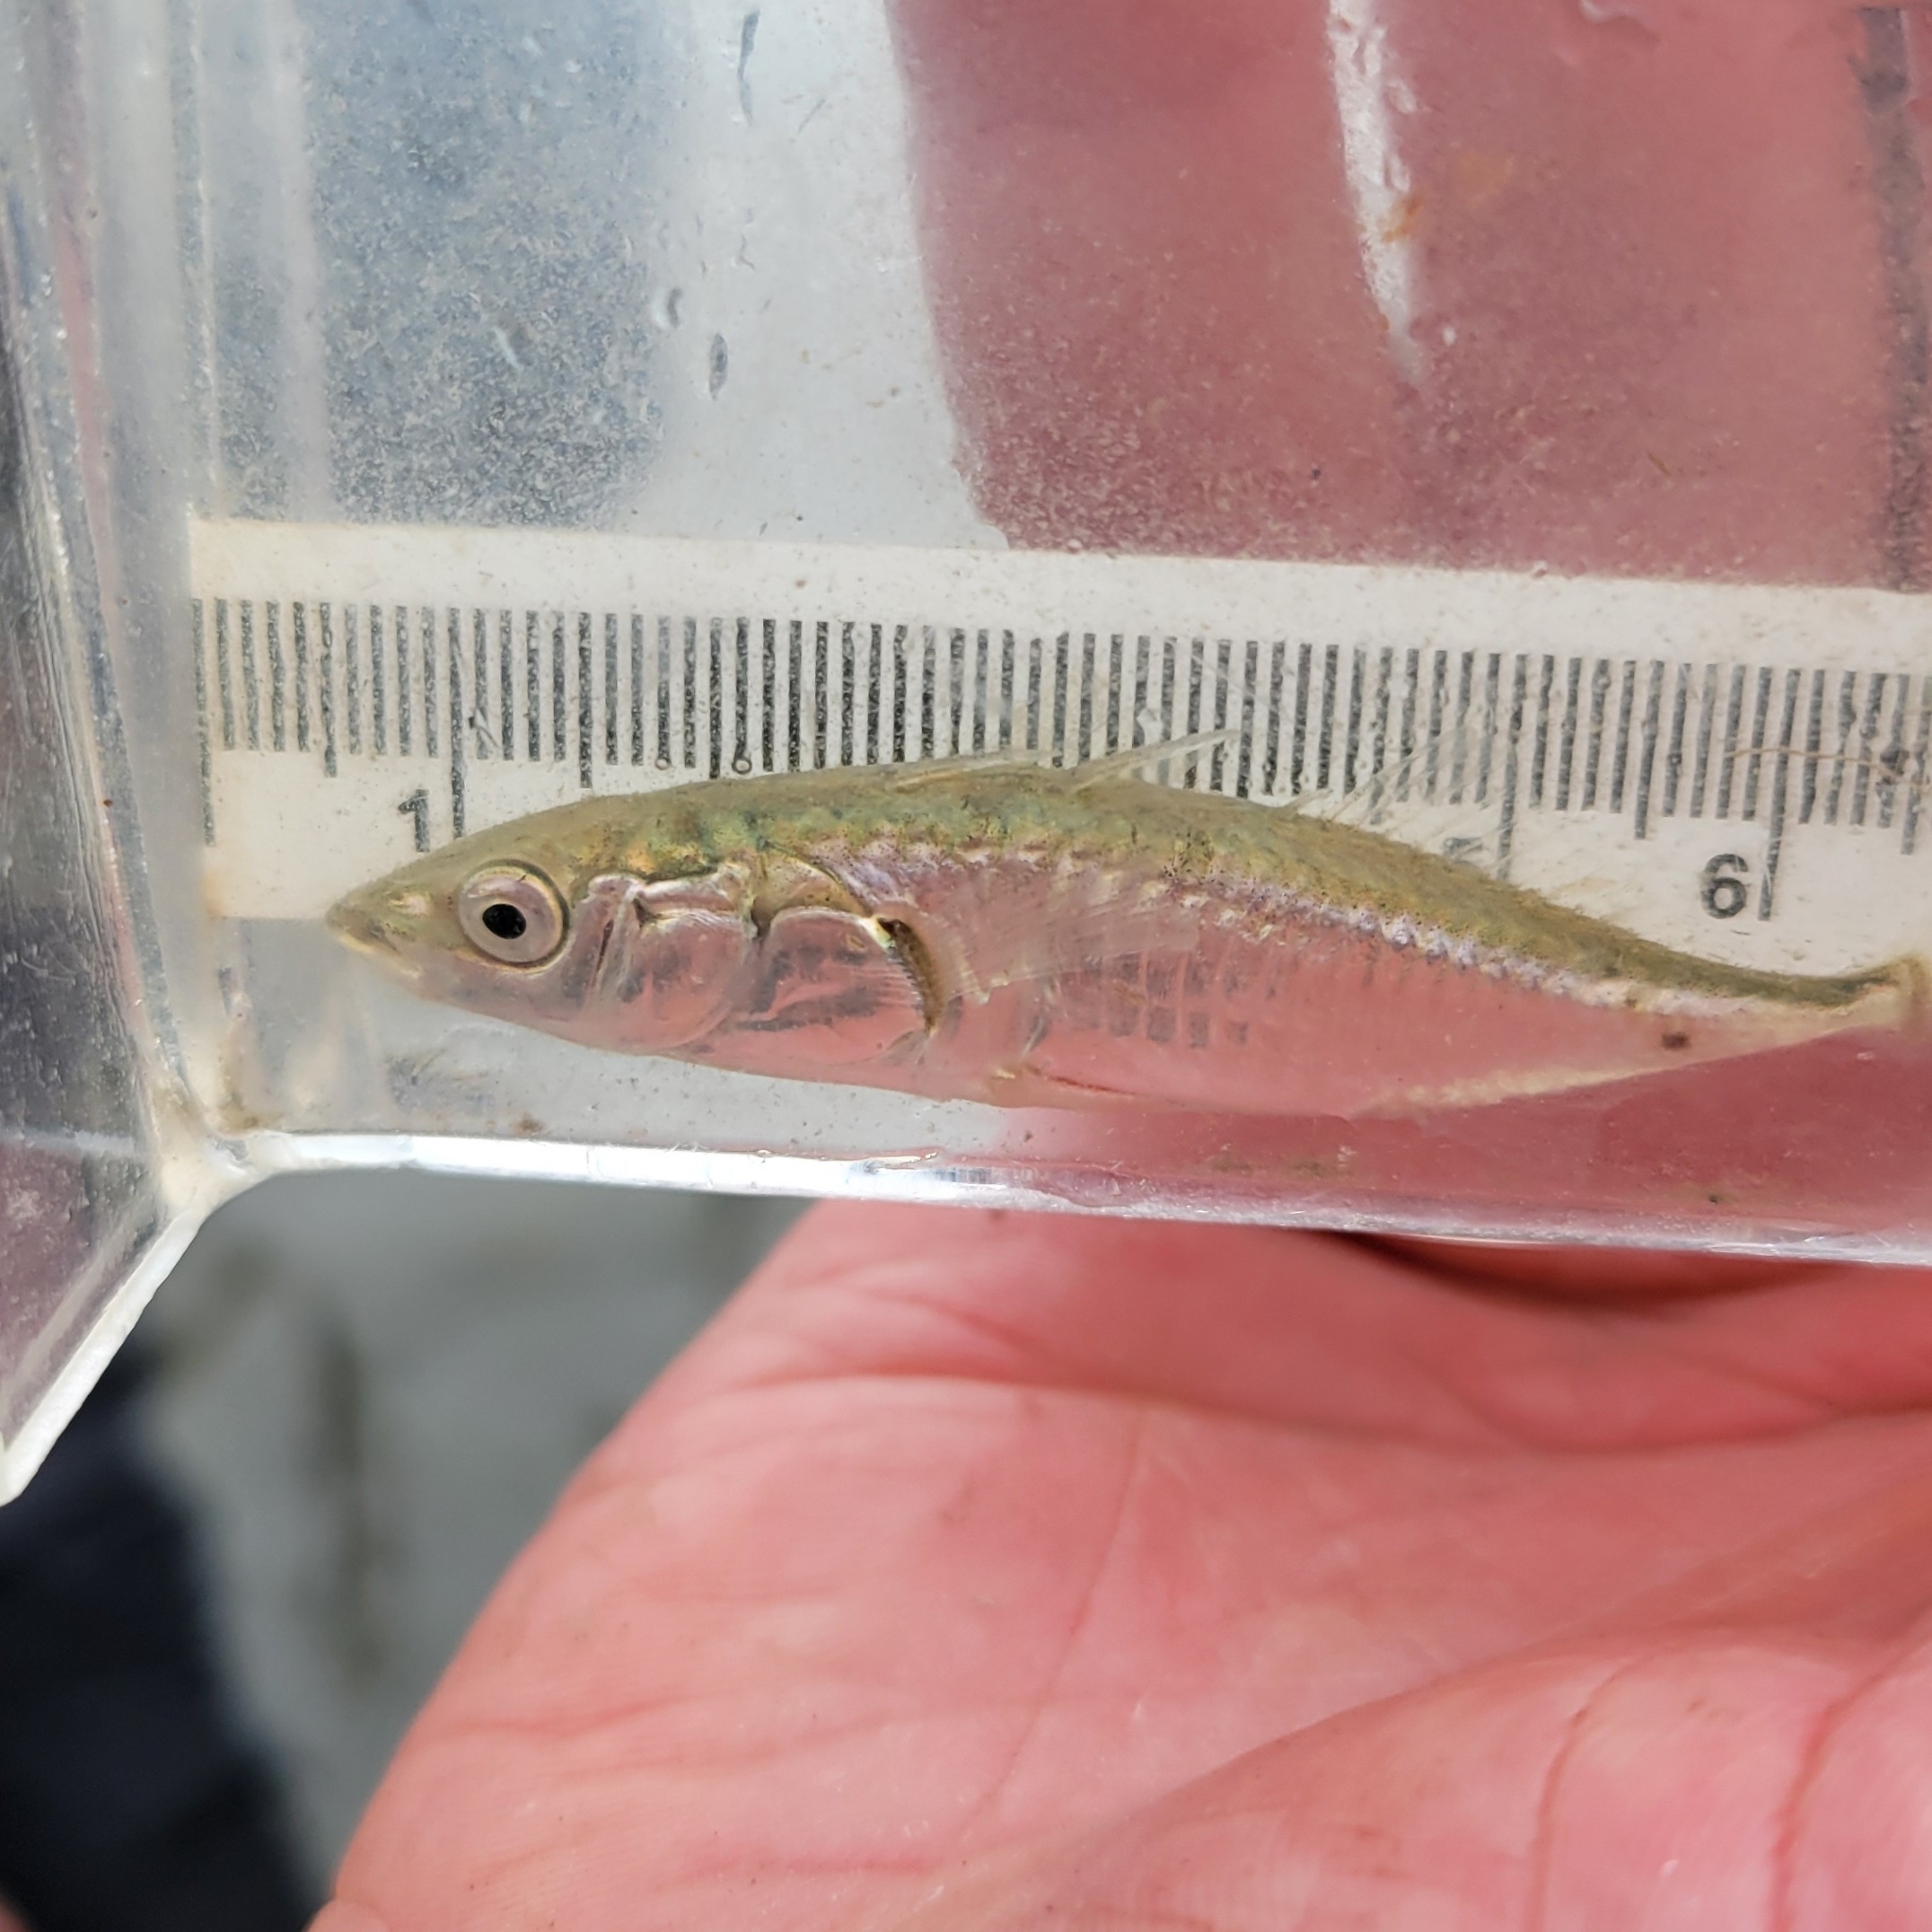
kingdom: Animalia
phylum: Chordata
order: Gasterosteiformes
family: Gasterosteidae
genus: Gasterosteus
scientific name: Gasterosteus aculeatus
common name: Three-spined stickleback
